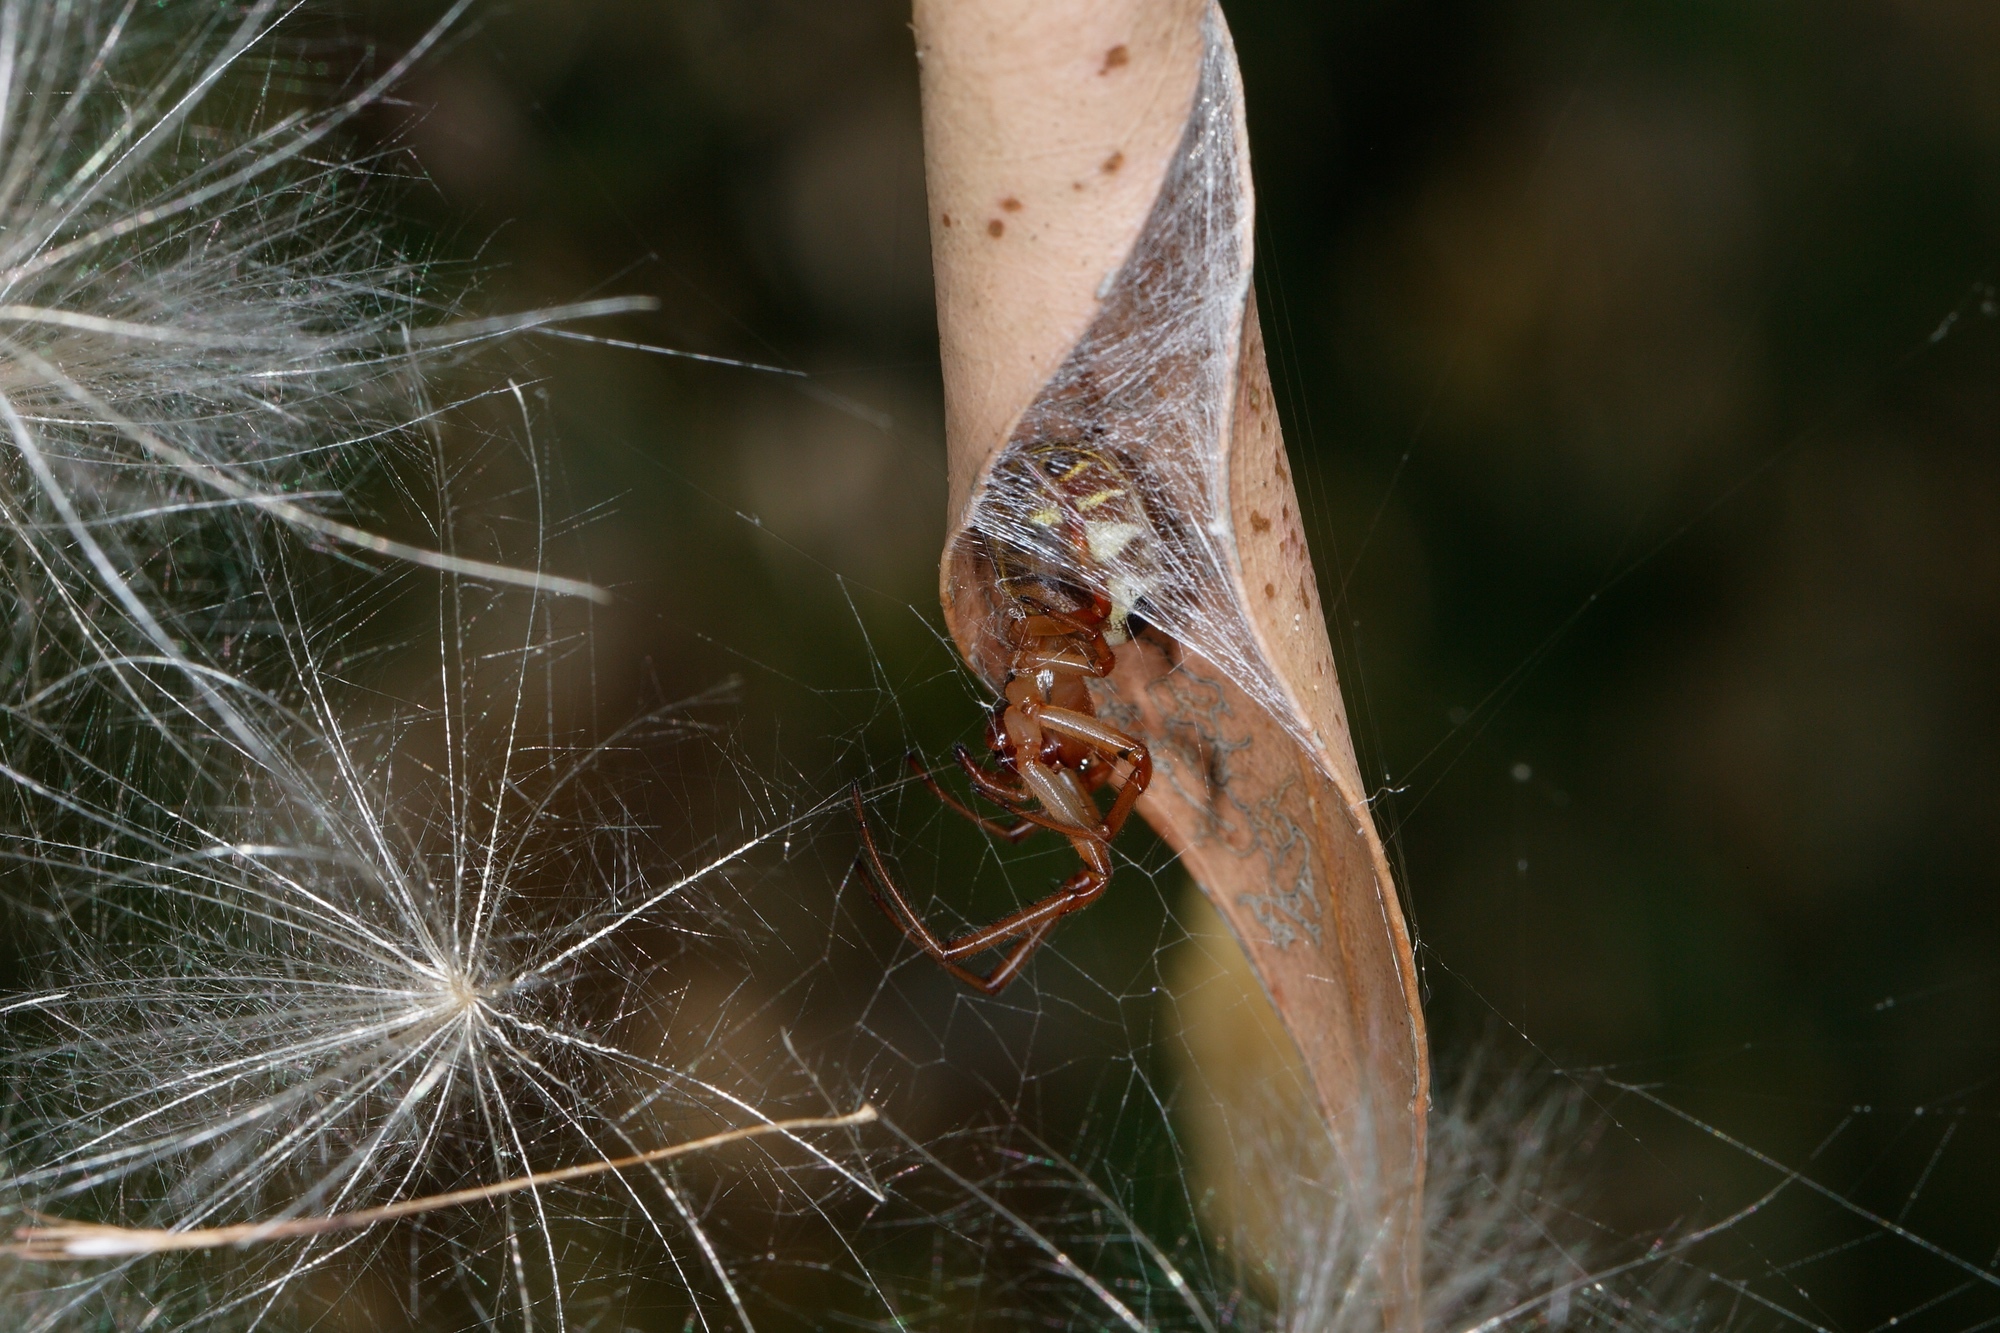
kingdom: Animalia
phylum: Arthropoda
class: Arachnida
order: Araneae
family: Araneidae
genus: Phonognatha
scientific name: Phonognatha graeffei
